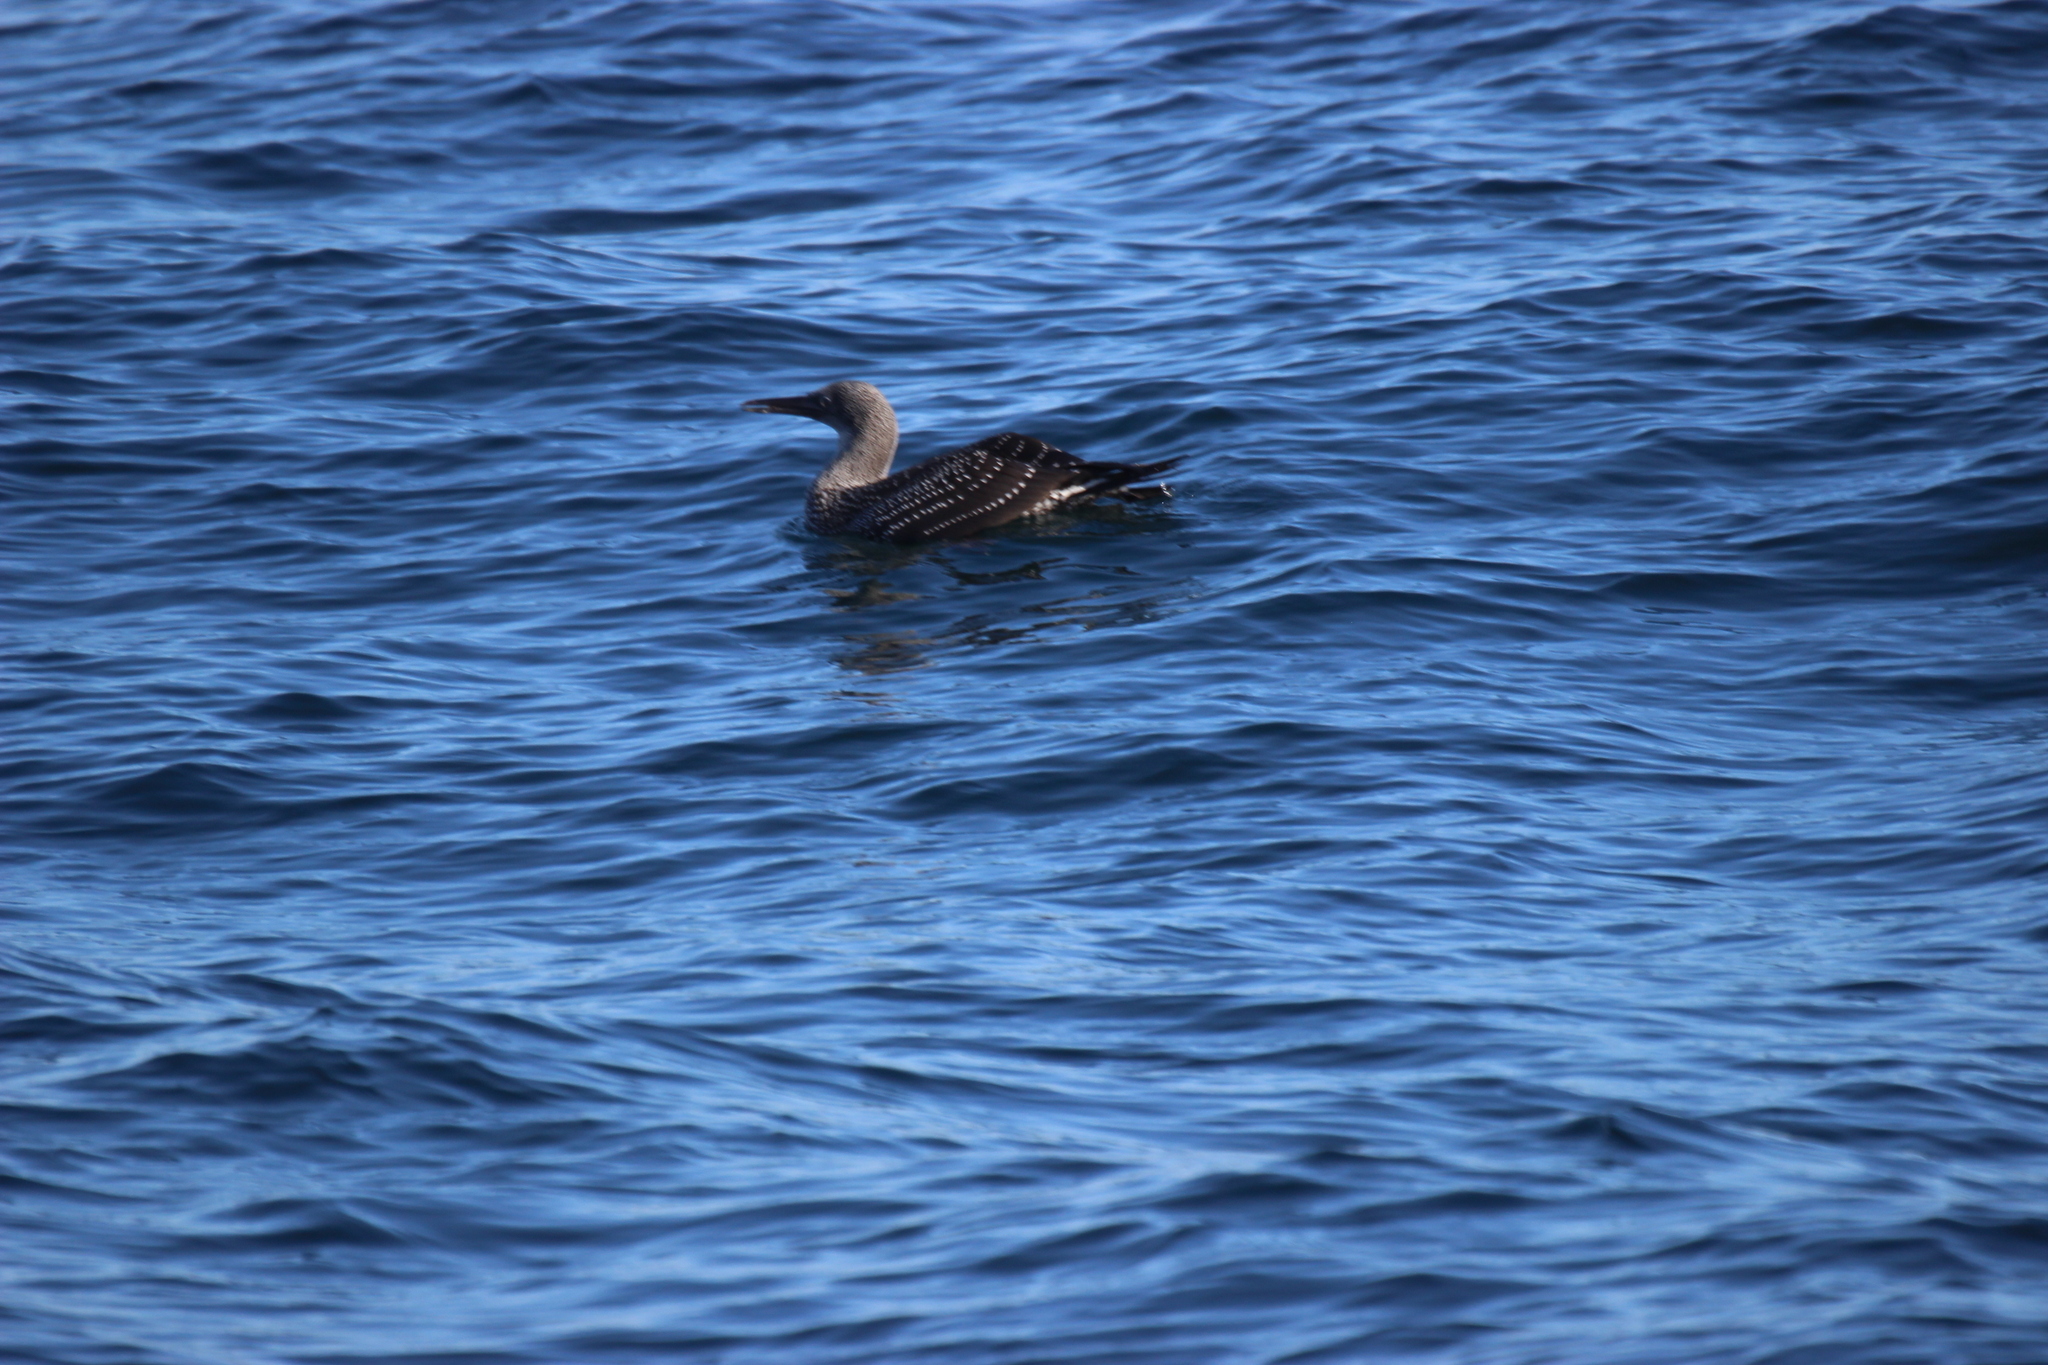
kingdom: Animalia
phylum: Chordata
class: Aves
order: Suliformes
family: Sulidae
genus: Morus
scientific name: Morus bassanus
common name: Northern gannet
